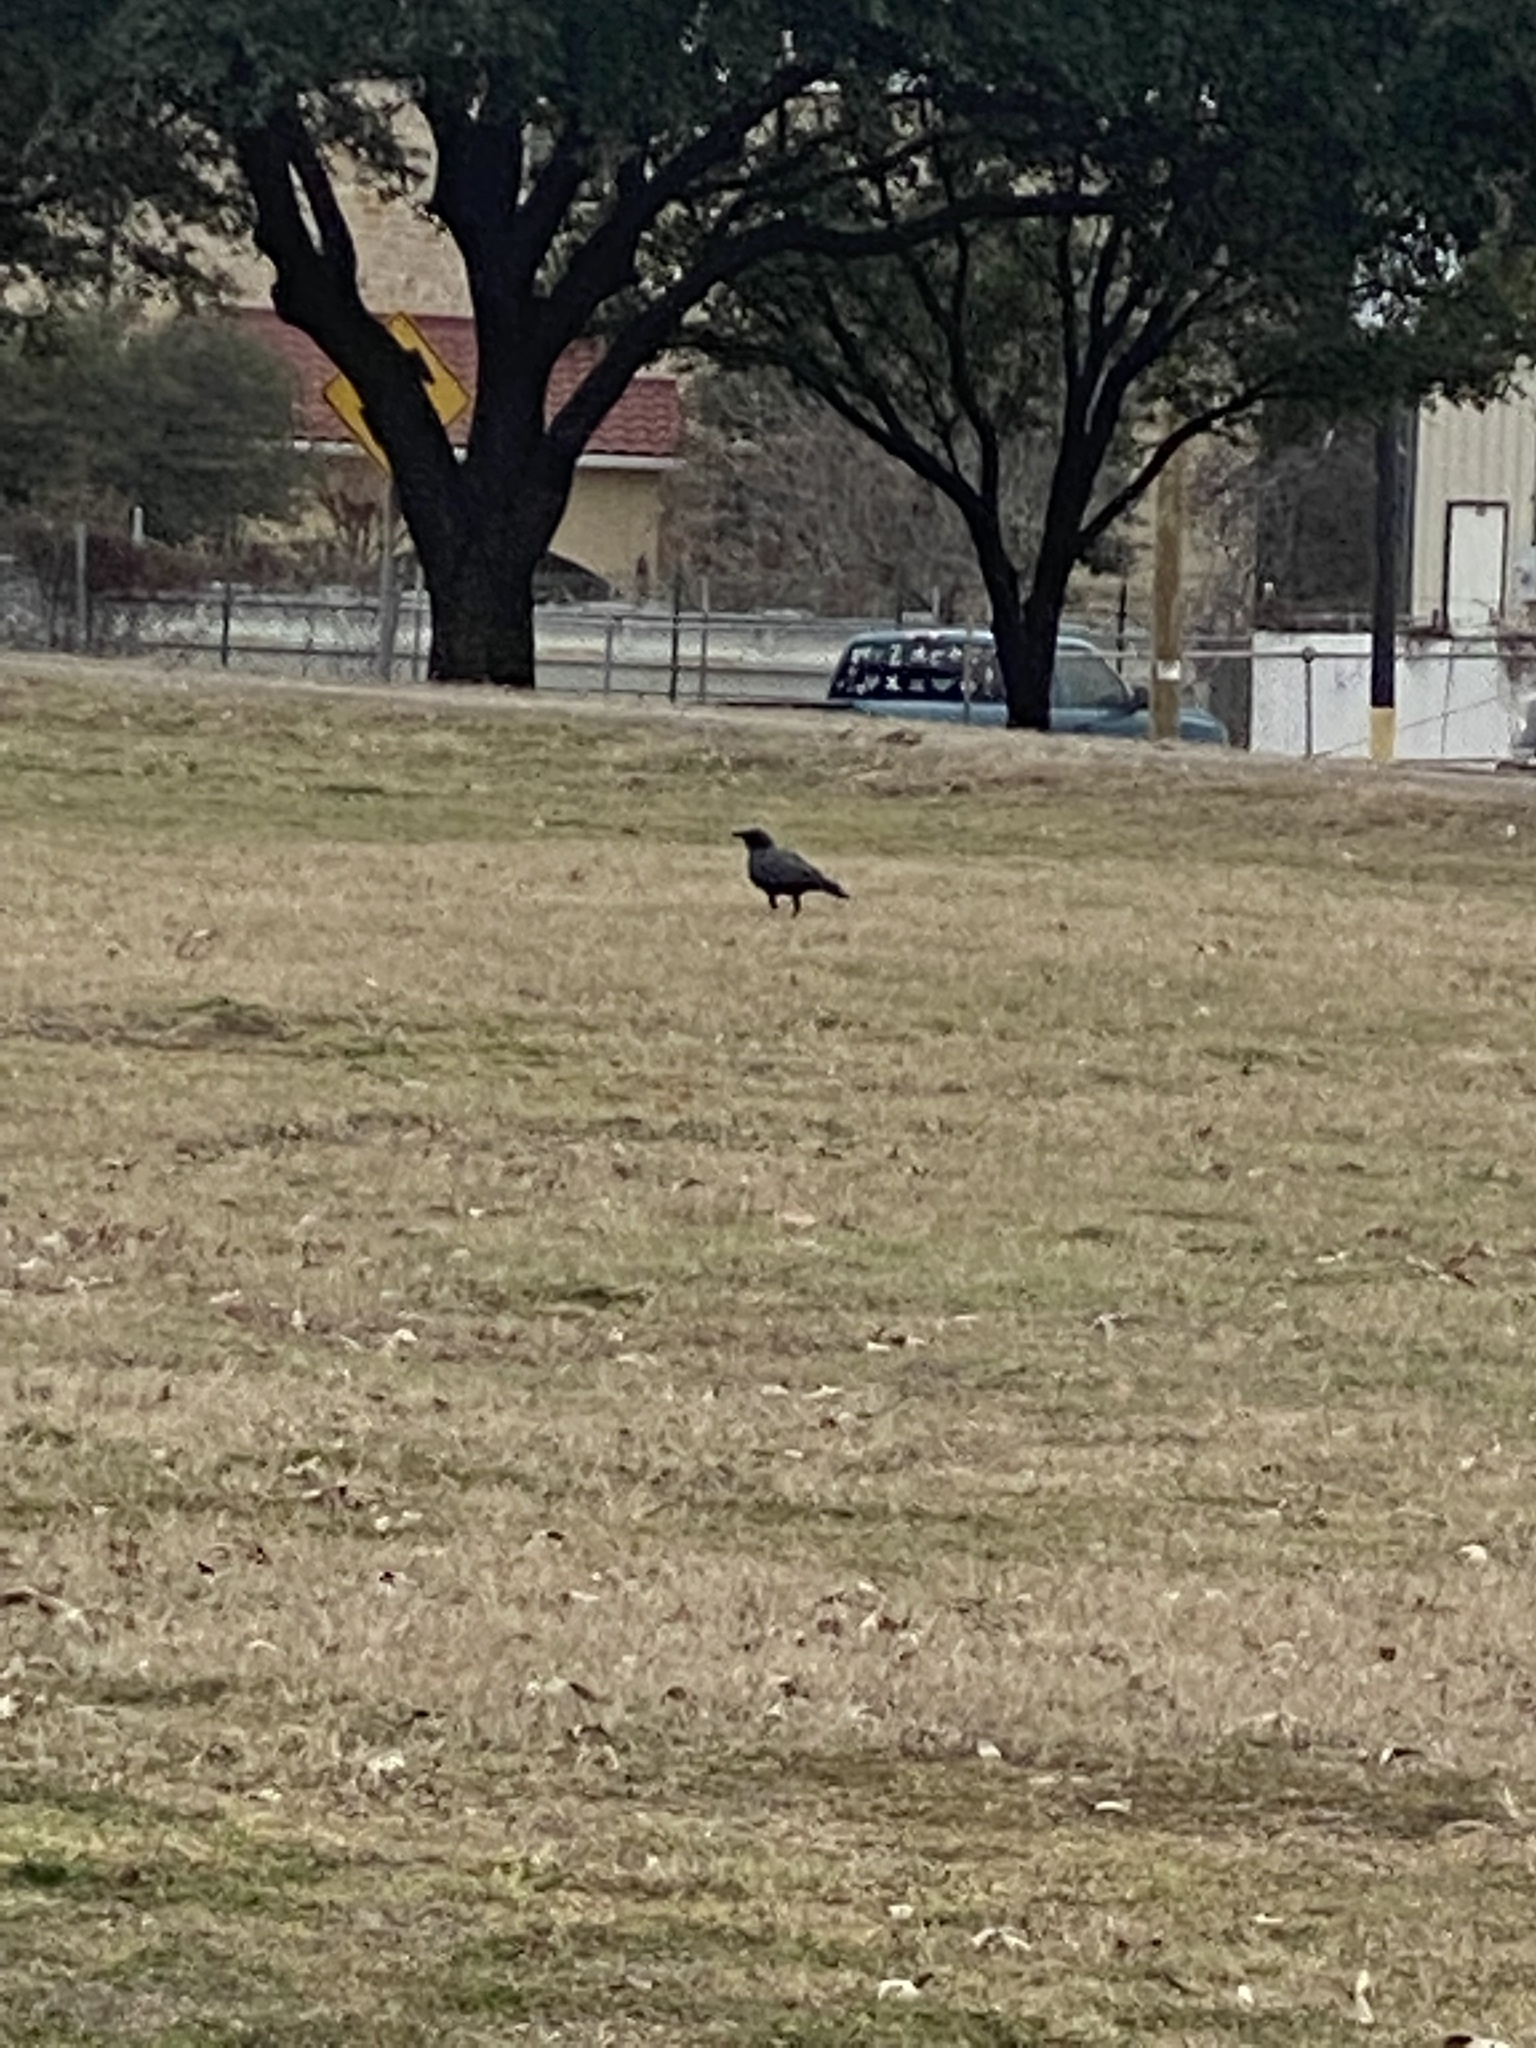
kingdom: Animalia
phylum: Chordata
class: Aves
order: Passeriformes
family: Corvidae
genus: Corvus
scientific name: Corvus brachyrhynchos
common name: American crow
